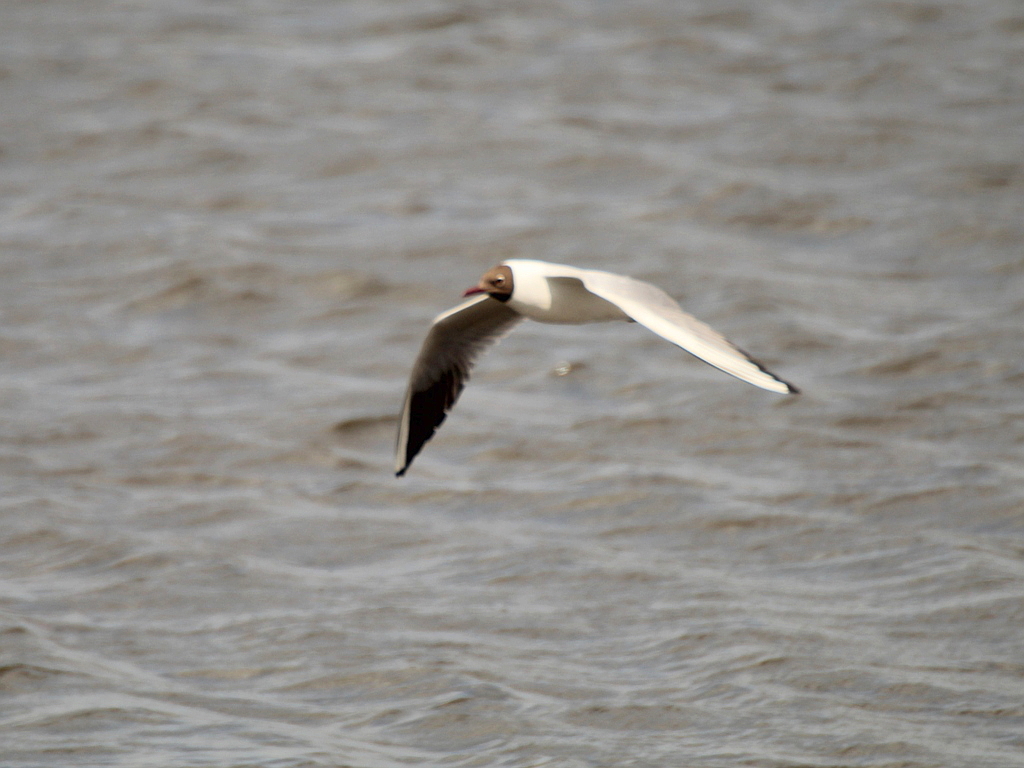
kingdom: Animalia
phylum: Chordata
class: Aves
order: Charadriiformes
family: Laridae
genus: Chroicocephalus
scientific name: Chroicocephalus ridibundus
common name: Black-headed gull
